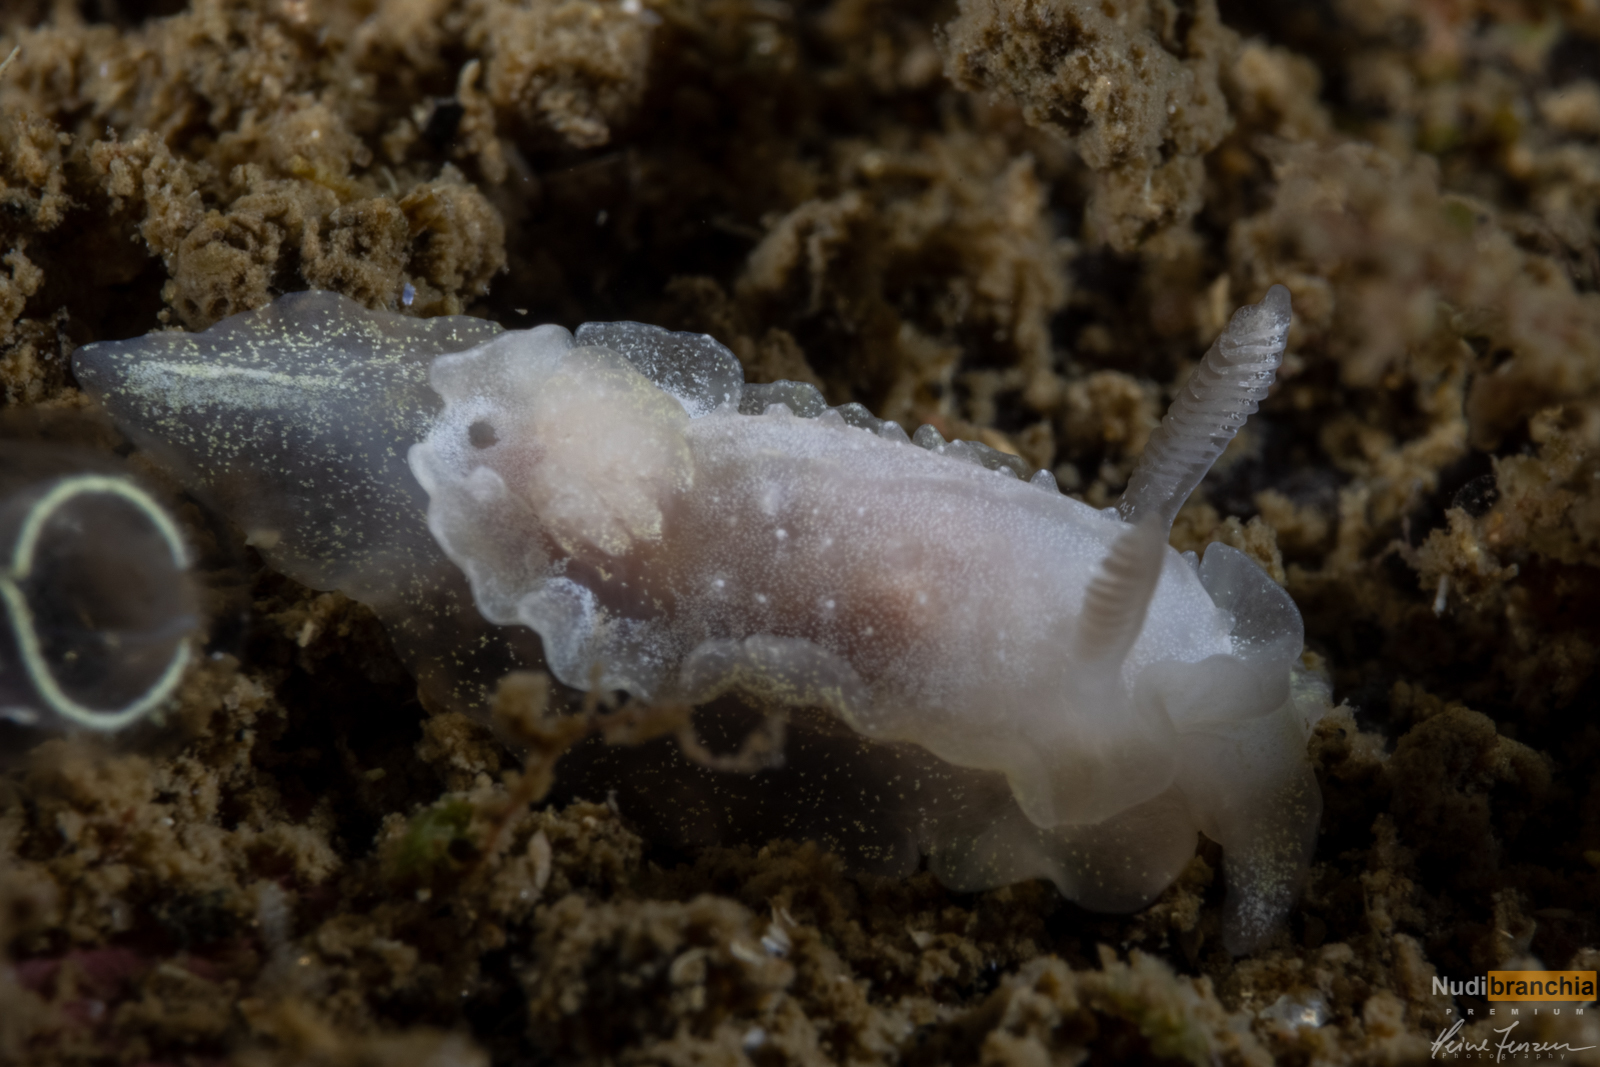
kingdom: Animalia
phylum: Mollusca
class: Gastropoda
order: Nudibranchia
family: Goniodorididae
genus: Okenia
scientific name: Okenia
